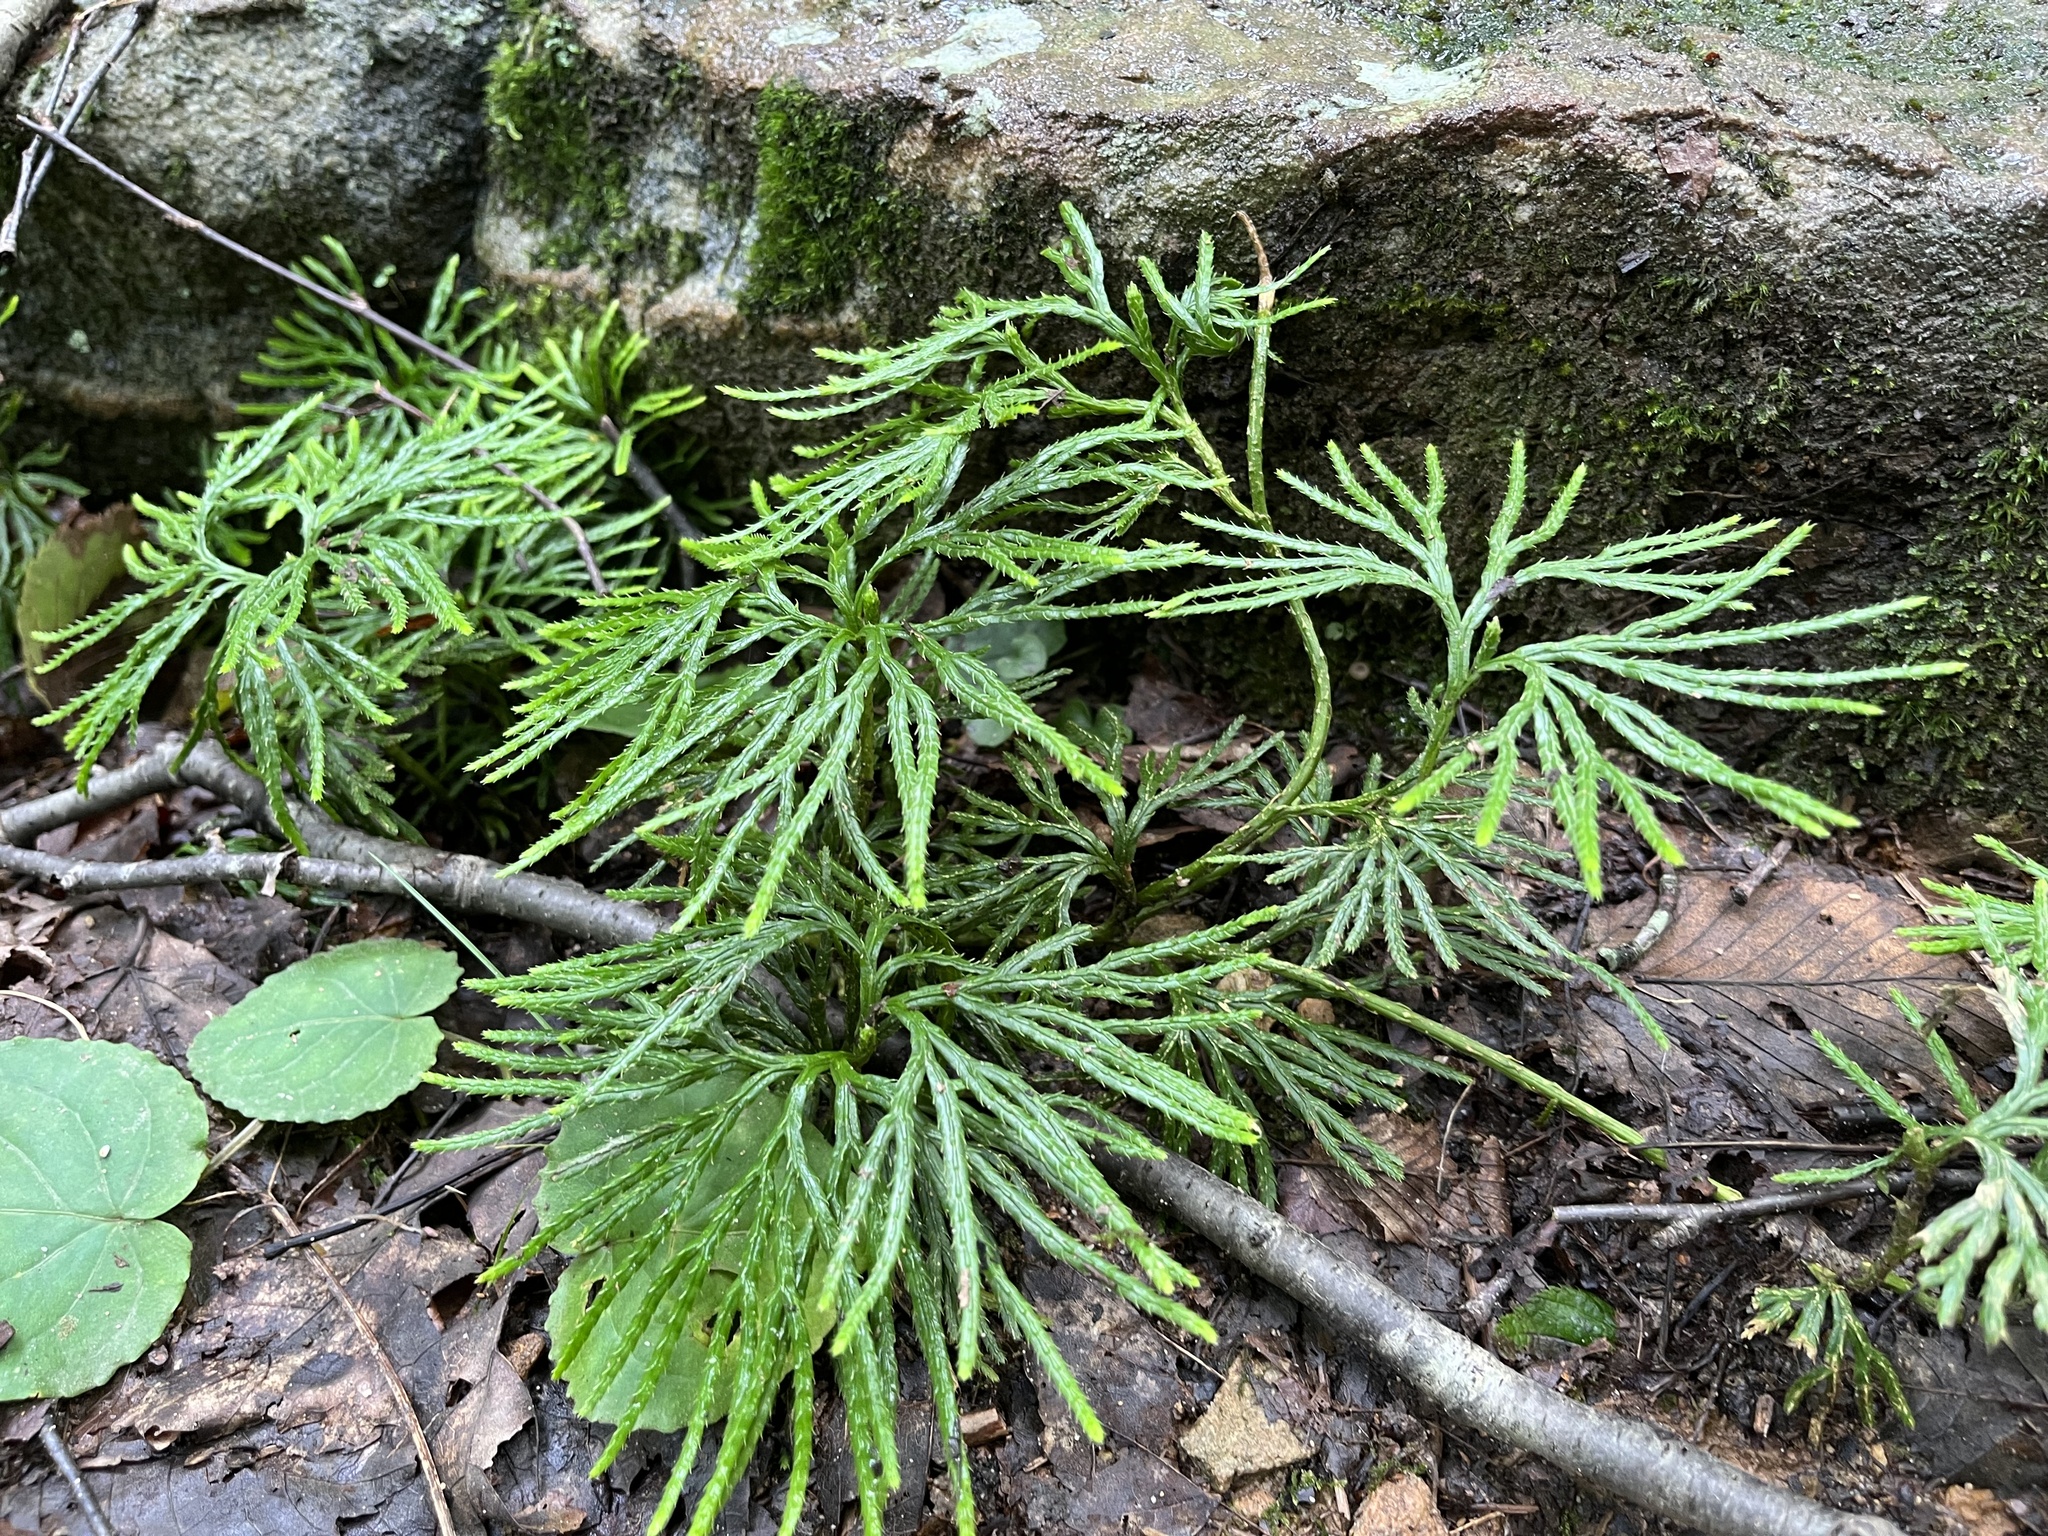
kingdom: Plantae
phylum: Tracheophyta
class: Lycopodiopsida
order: Lycopodiales
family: Lycopodiaceae
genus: Diphasiastrum
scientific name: Diphasiastrum digitatum
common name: Southern running-pine
